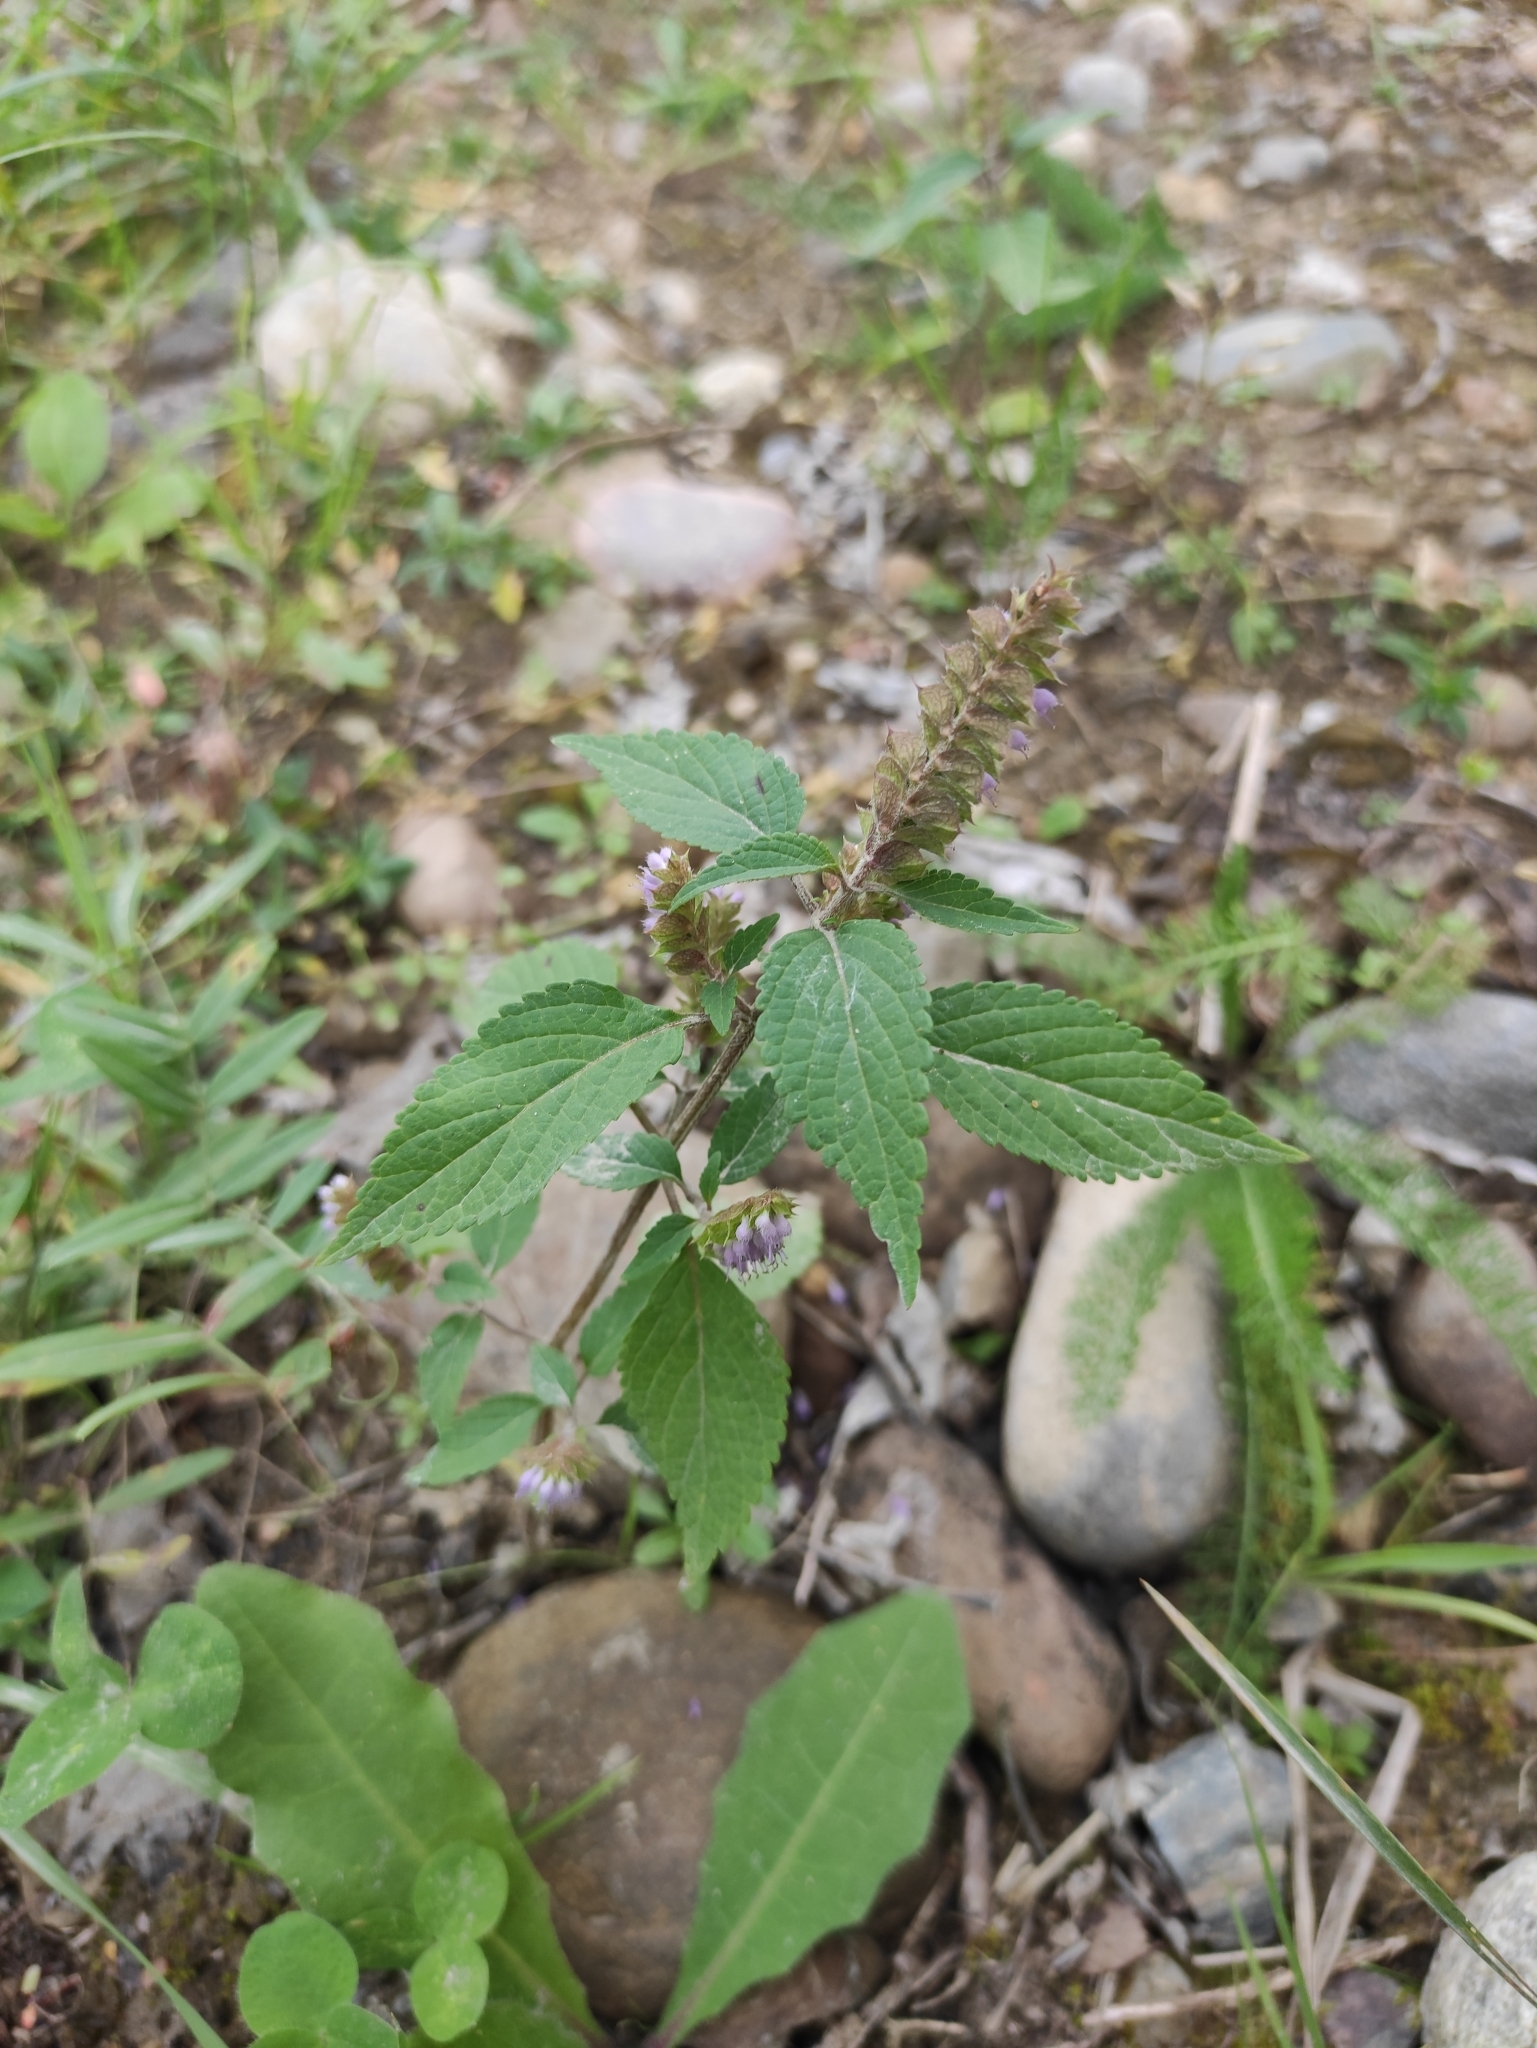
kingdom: Plantae
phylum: Tracheophyta
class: Magnoliopsida
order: Lamiales
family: Lamiaceae
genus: Elsholtzia
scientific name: Elsholtzia ciliata
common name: Ciliate elsholtzia
